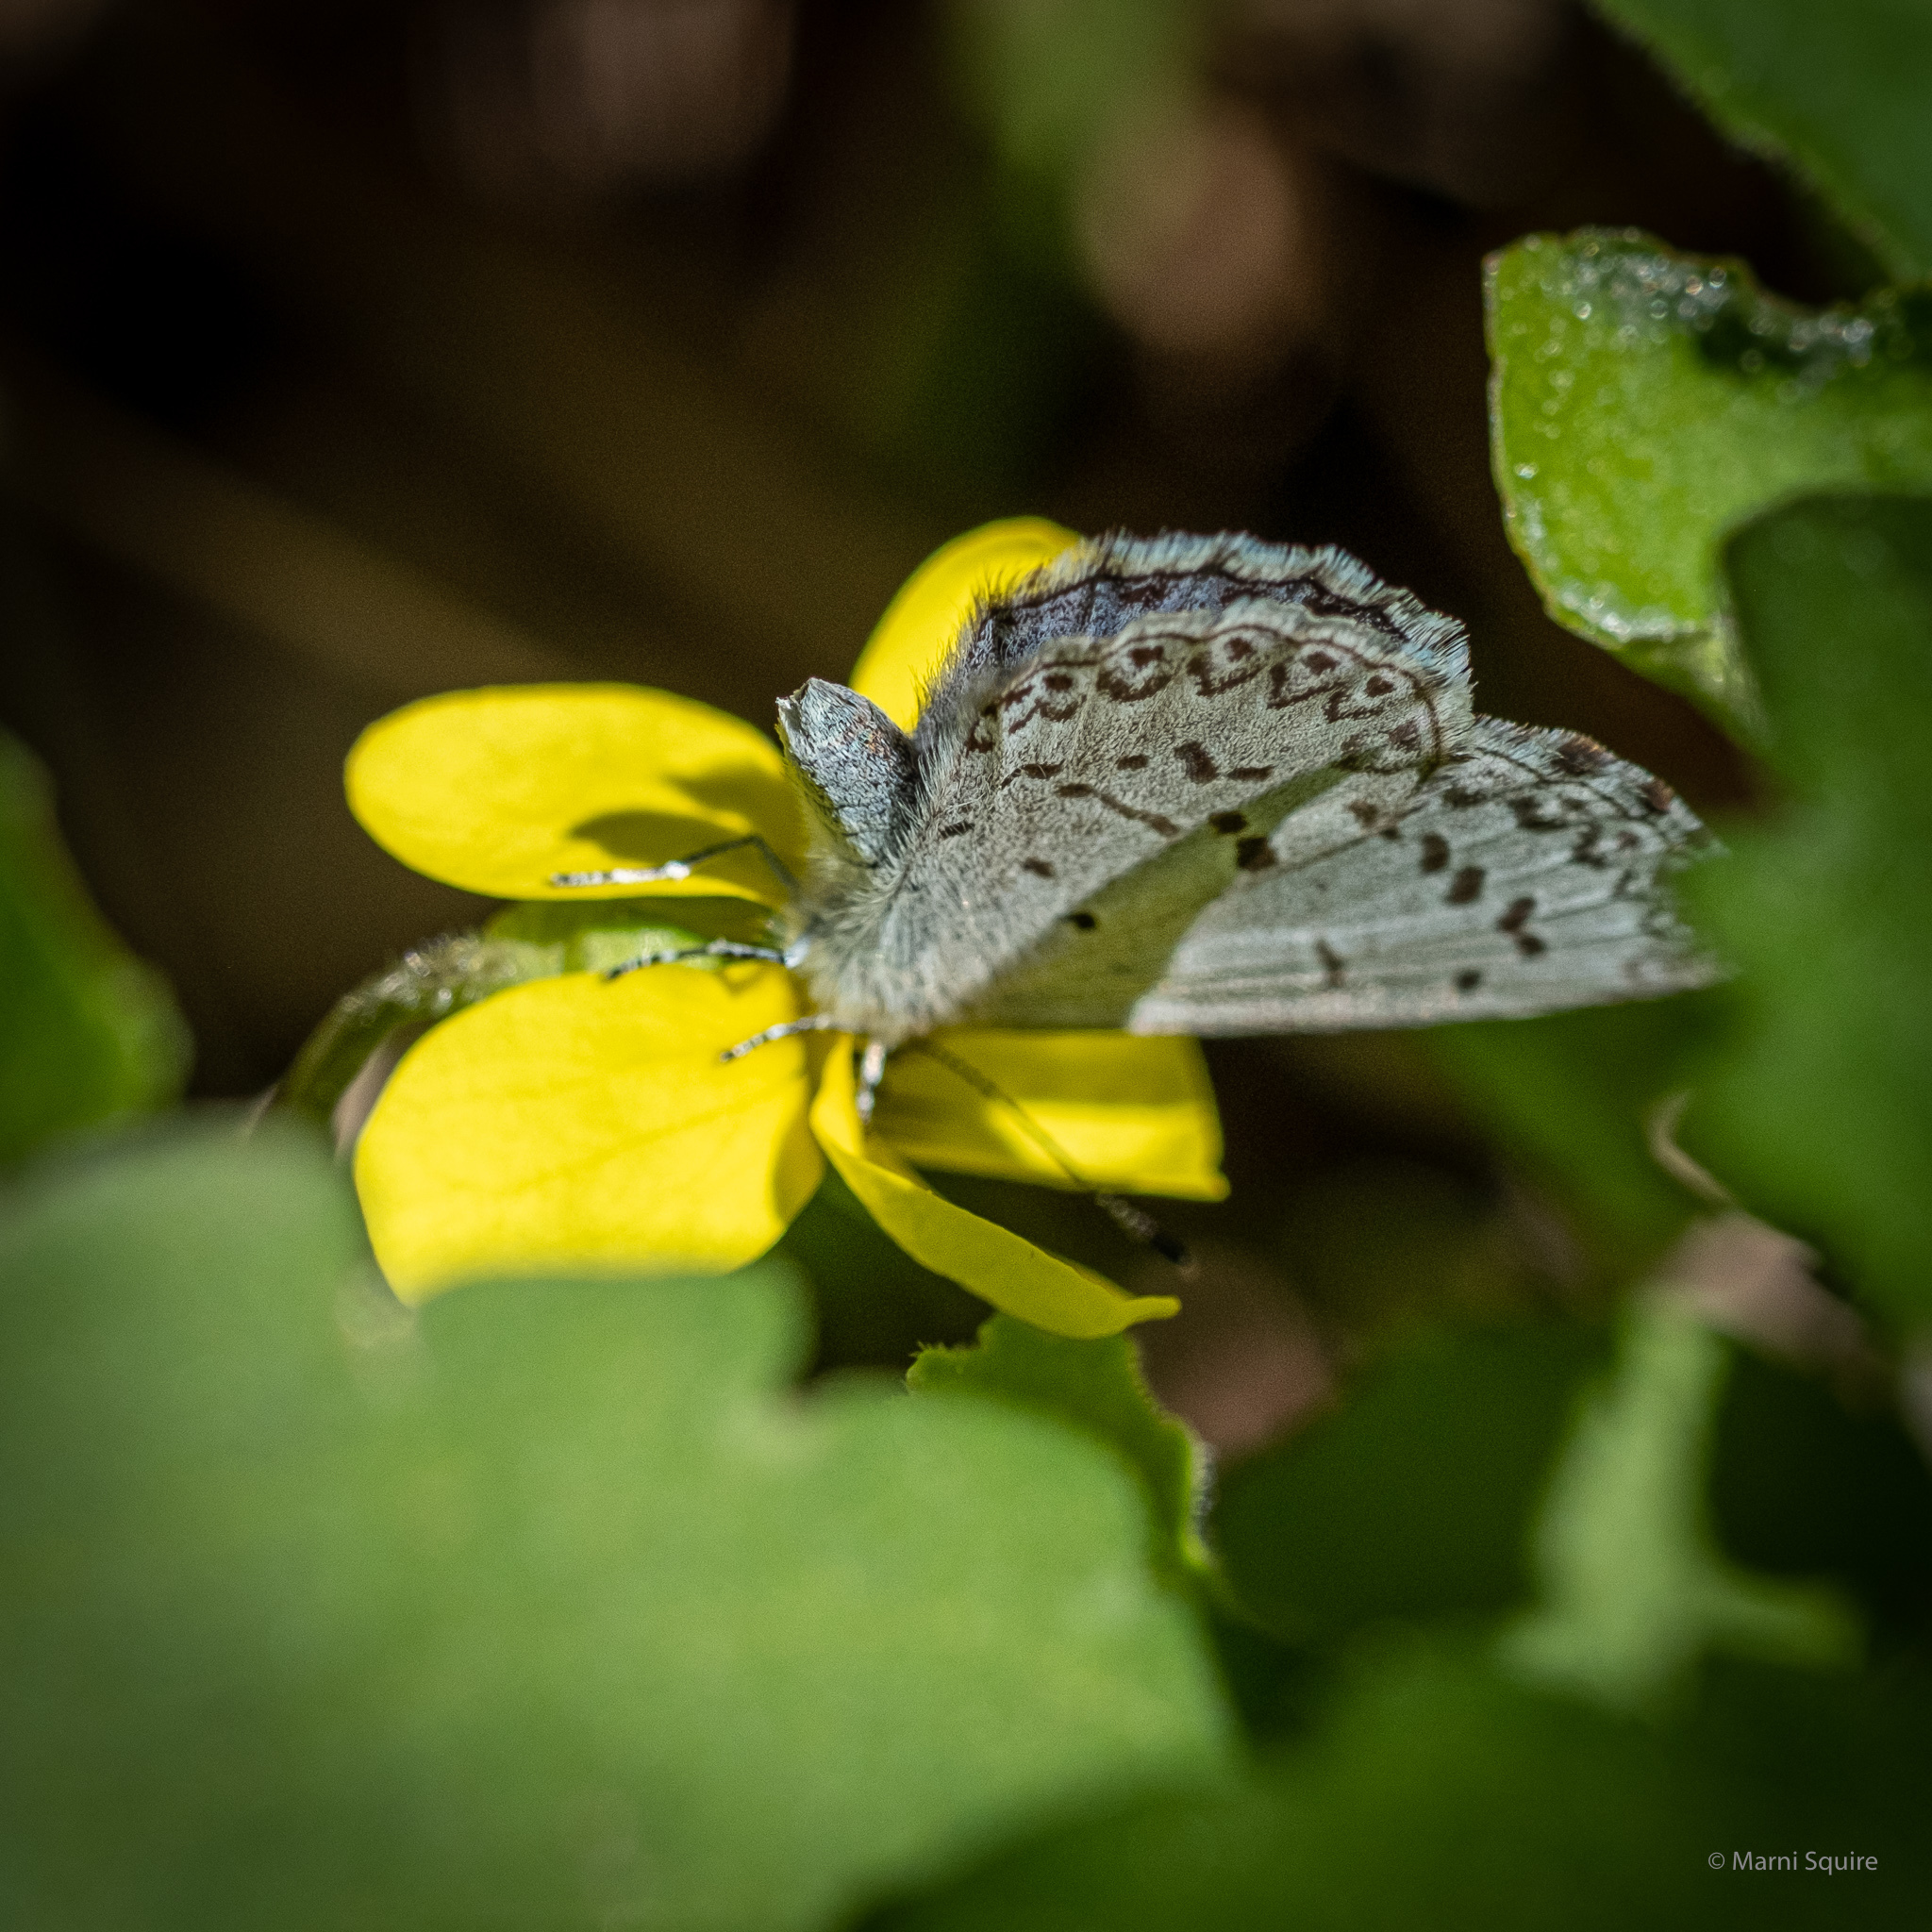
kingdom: Animalia
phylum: Arthropoda
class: Insecta
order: Lepidoptera
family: Lycaenidae
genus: Celastrina
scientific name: Celastrina lucia
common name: Lucia azure
